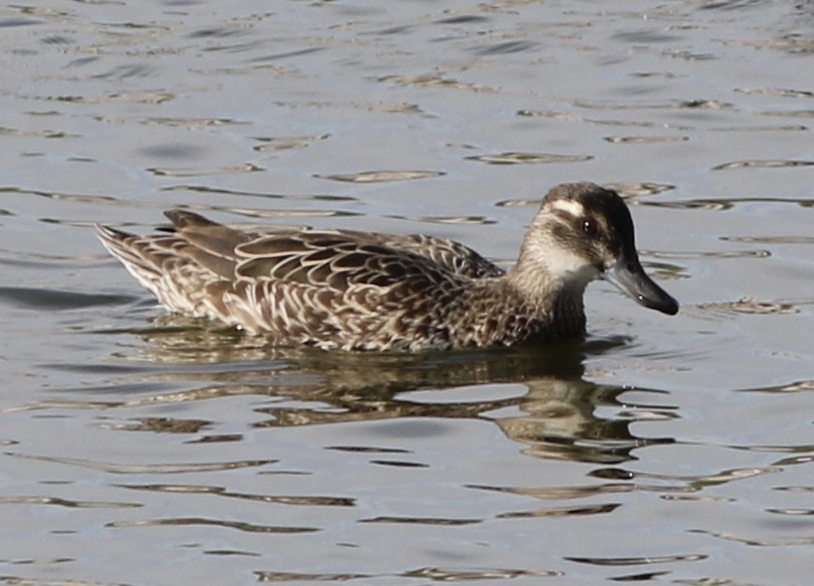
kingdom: Animalia
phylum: Chordata
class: Aves
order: Anseriformes
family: Anatidae
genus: Spatula
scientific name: Spatula querquedula
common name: Garganey
